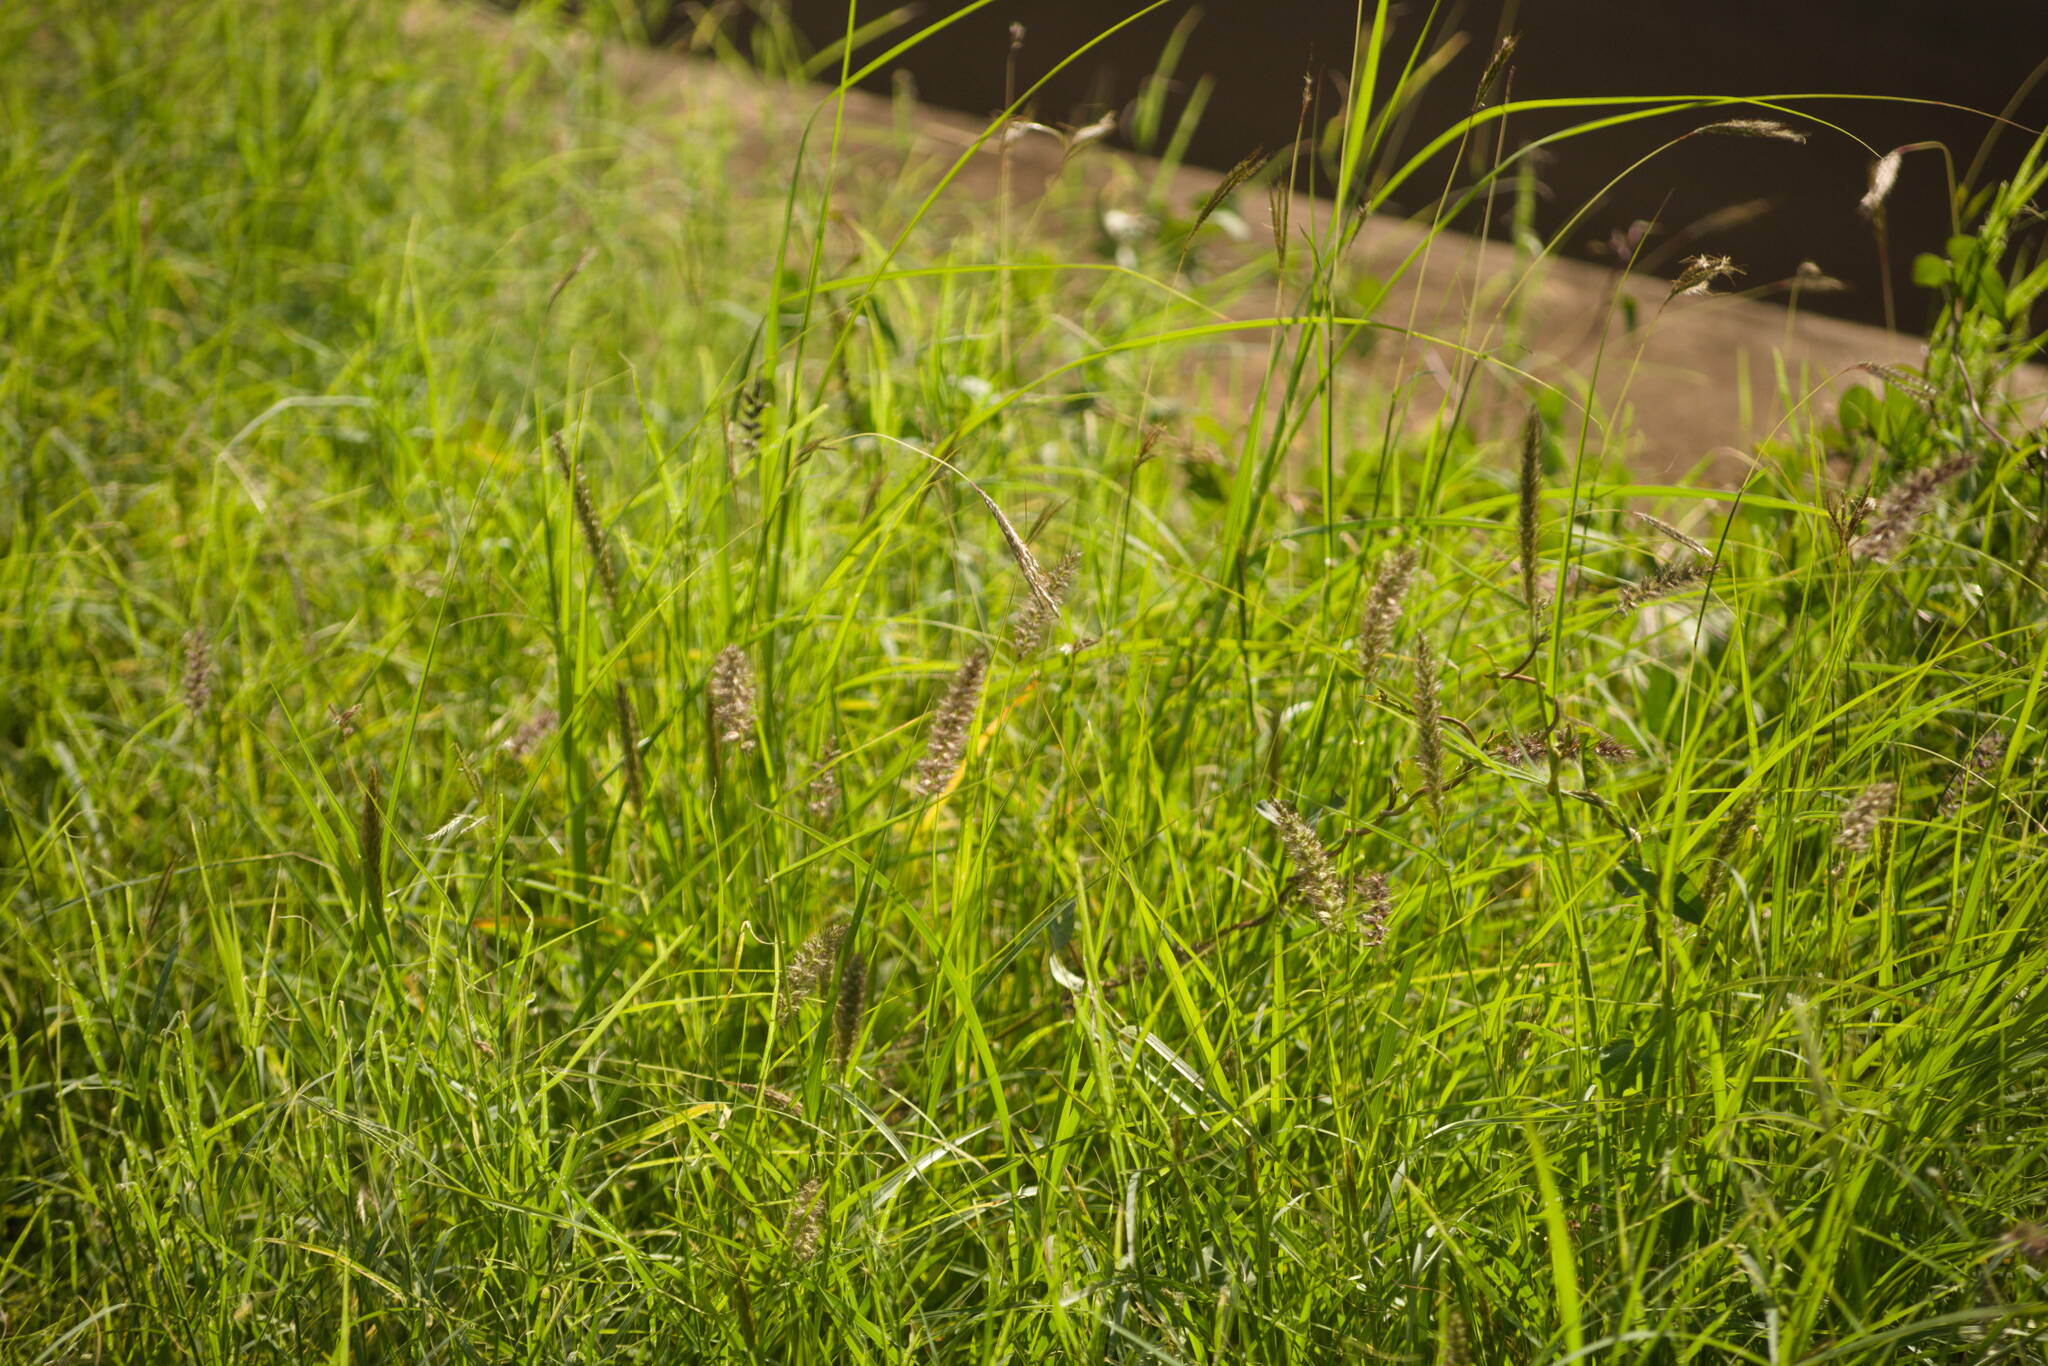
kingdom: Plantae
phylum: Tracheophyta
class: Liliopsida
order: Poales
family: Poaceae
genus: Cenchrus
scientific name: Cenchrus ciliaris
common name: Buffelgrass
